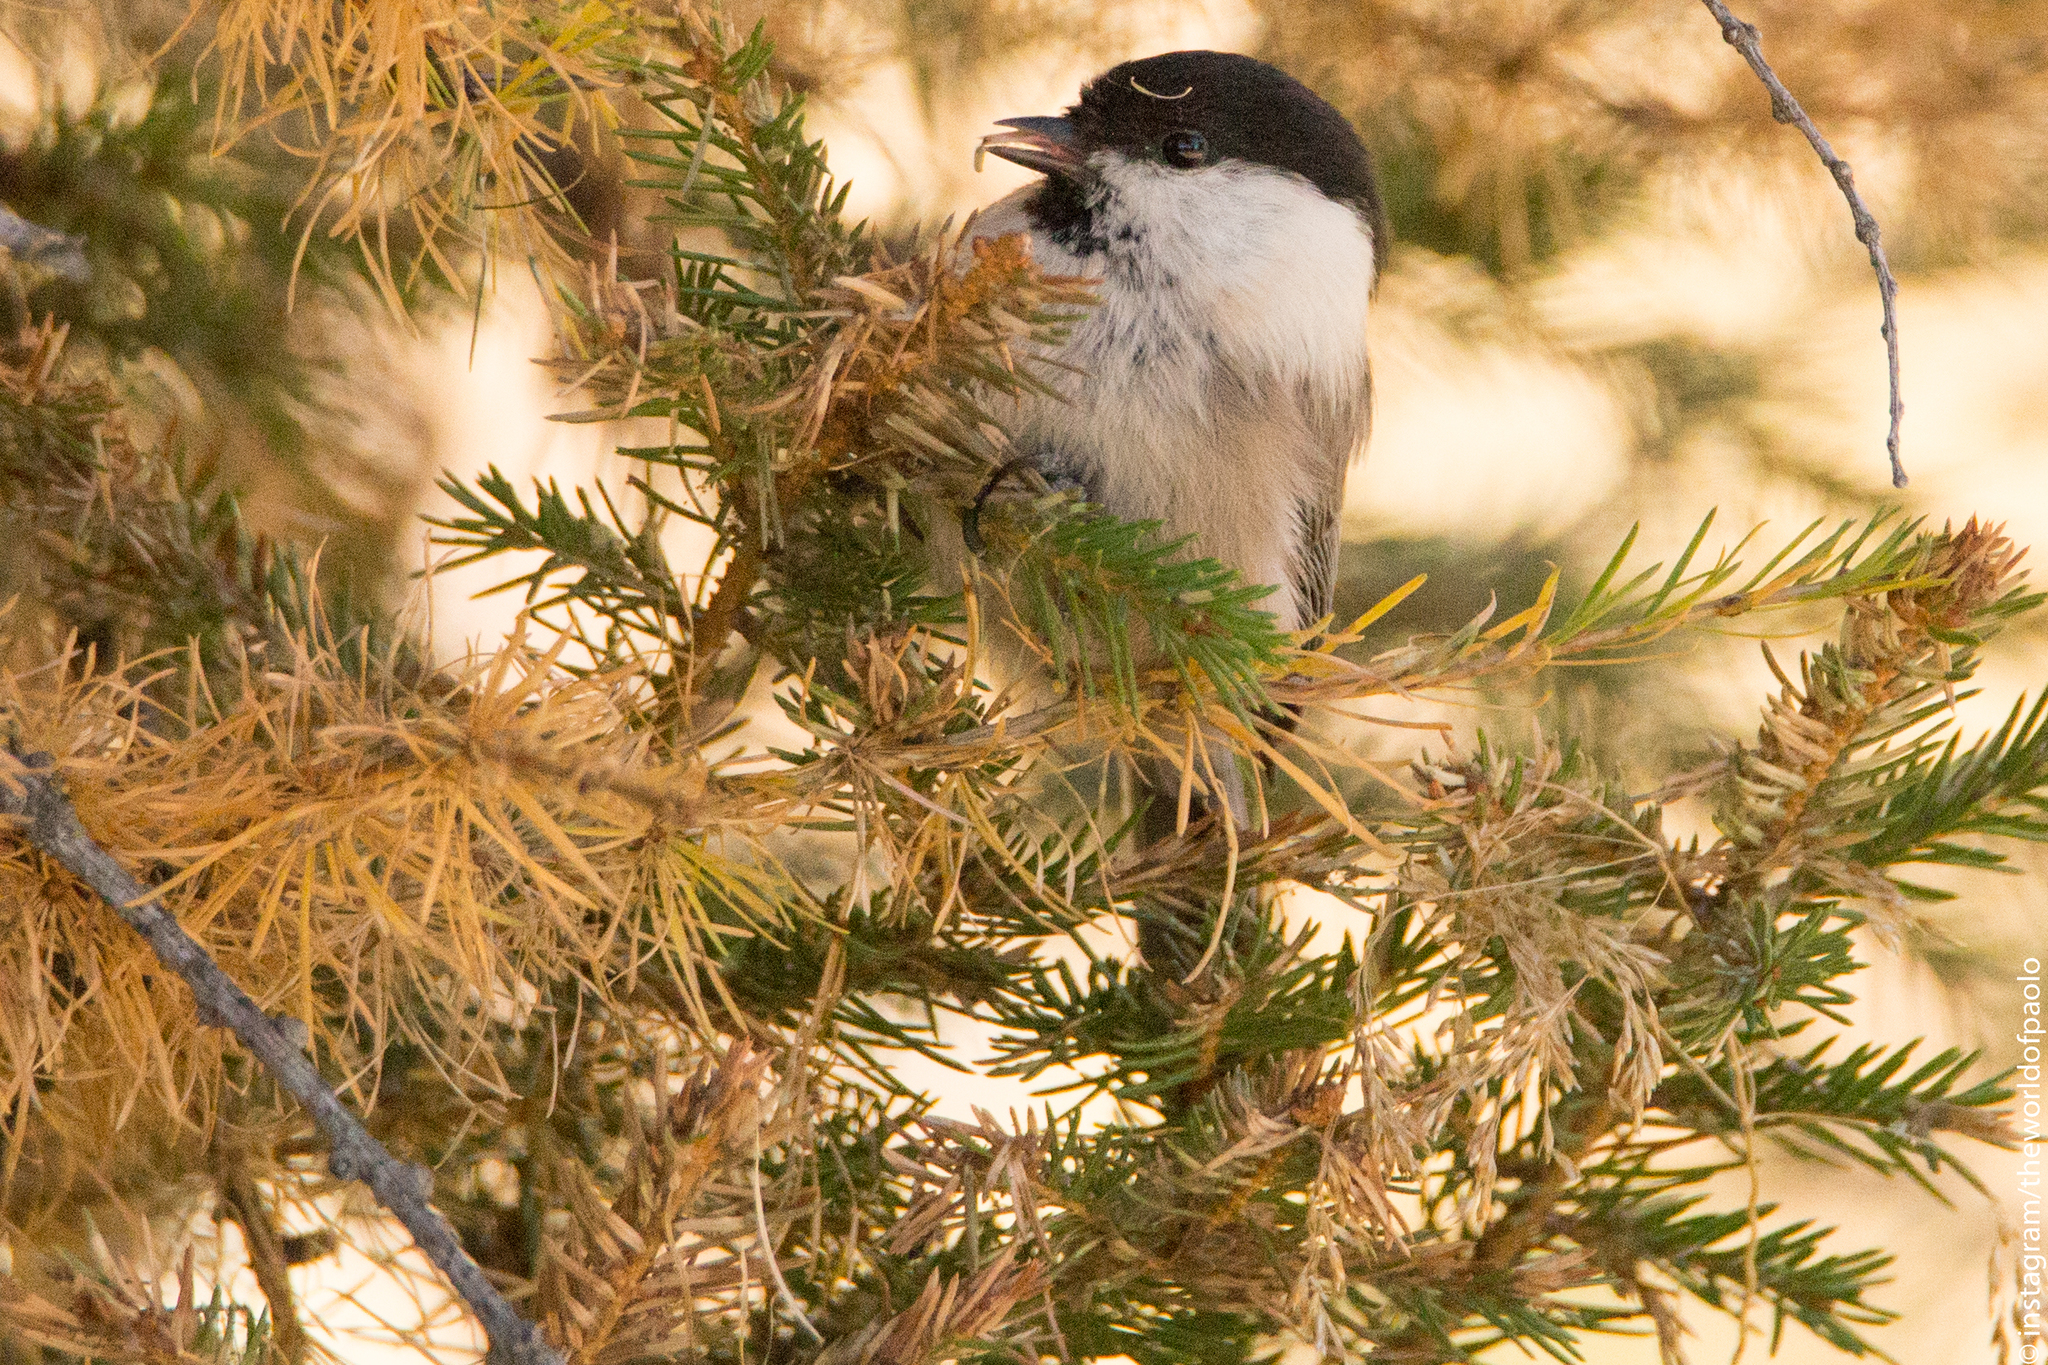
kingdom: Animalia
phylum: Chordata
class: Aves
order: Passeriformes
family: Paridae
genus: Poecile
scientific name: Poecile montanus
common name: Willow tit
